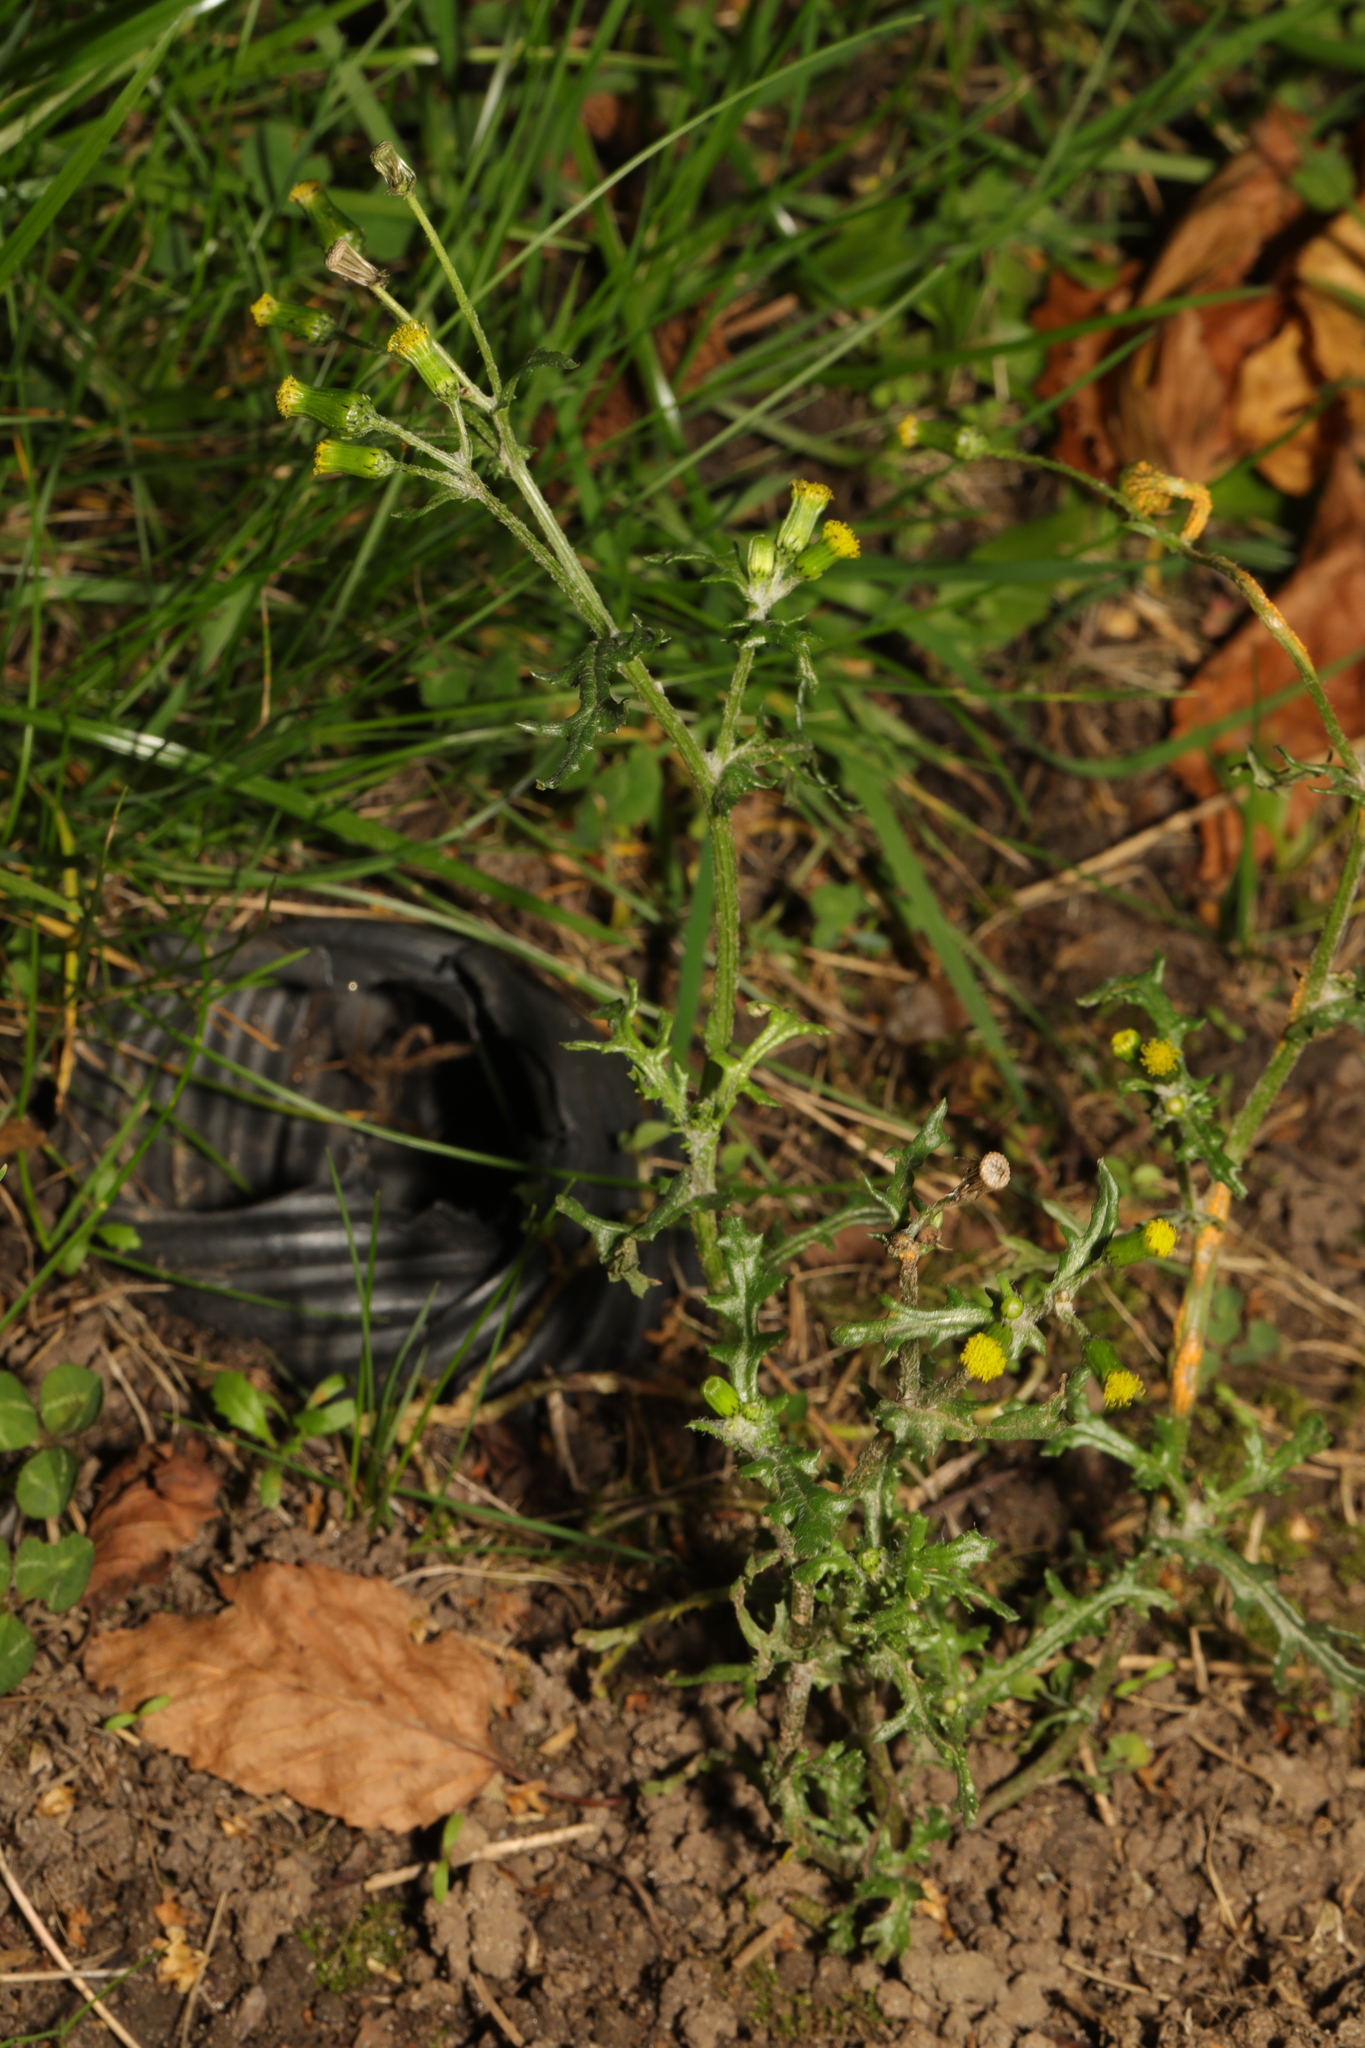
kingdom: Plantae
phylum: Tracheophyta
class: Magnoliopsida
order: Asterales
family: Asteraceae
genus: Senecio
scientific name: Senecio vulgaris
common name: Old-man-in-the-spring
